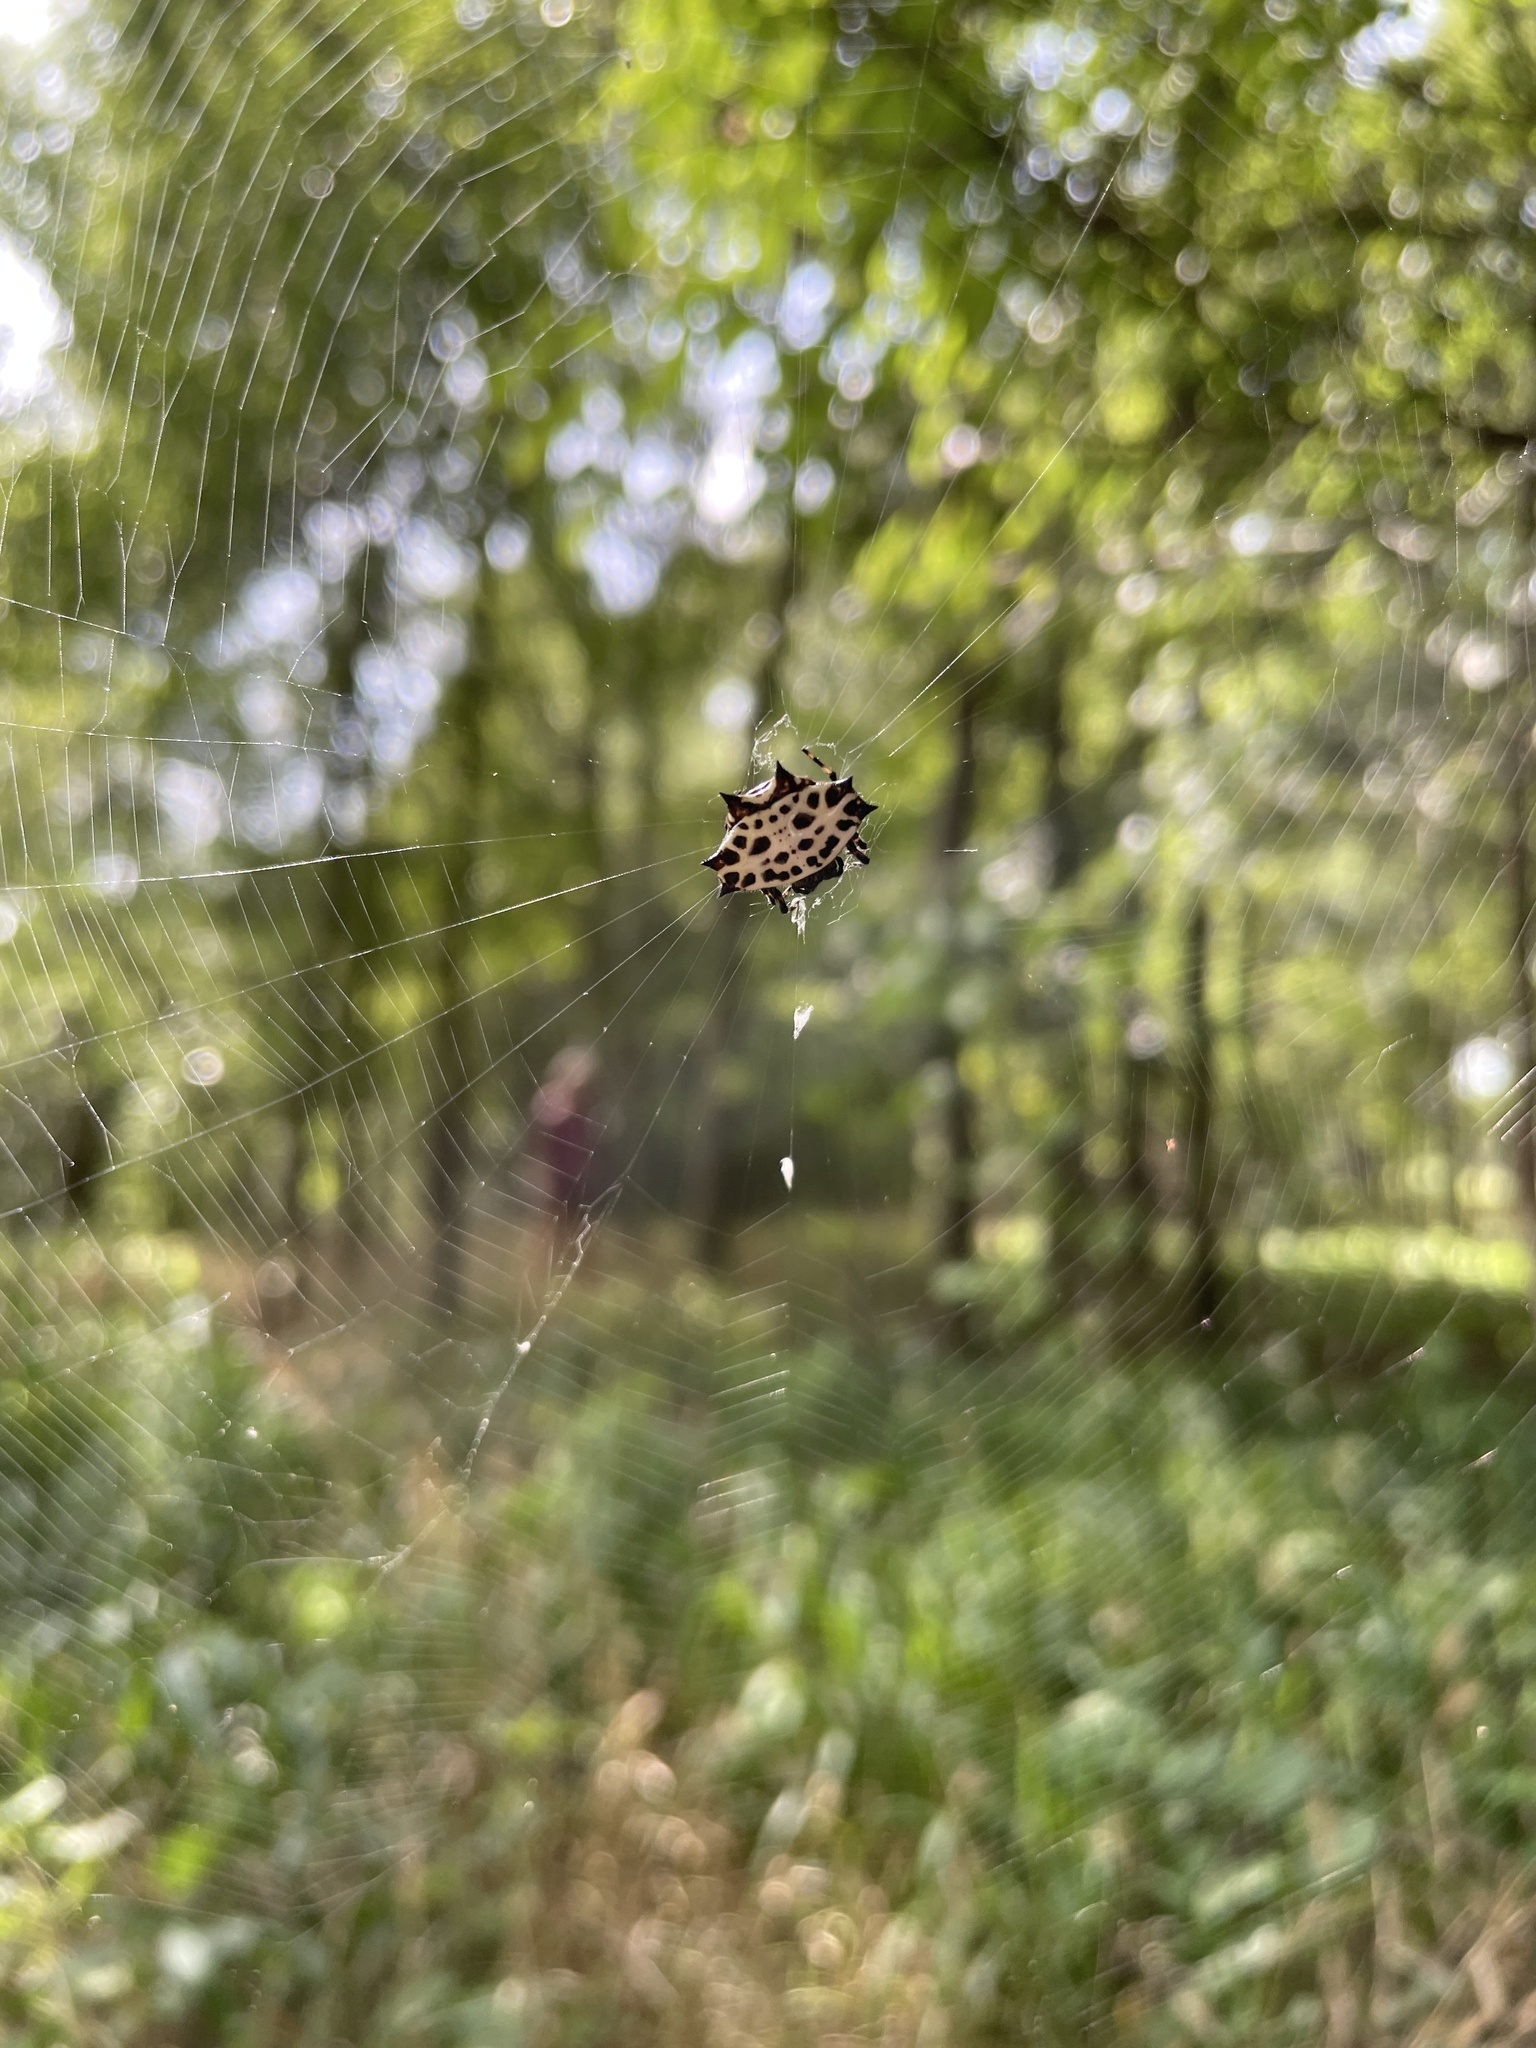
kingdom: Animalia
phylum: Arthropoda
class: Arachnida
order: Araneae
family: Araneidae
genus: Gasteracantha
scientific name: Gasteracantha cancriformis
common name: Orb weavers
